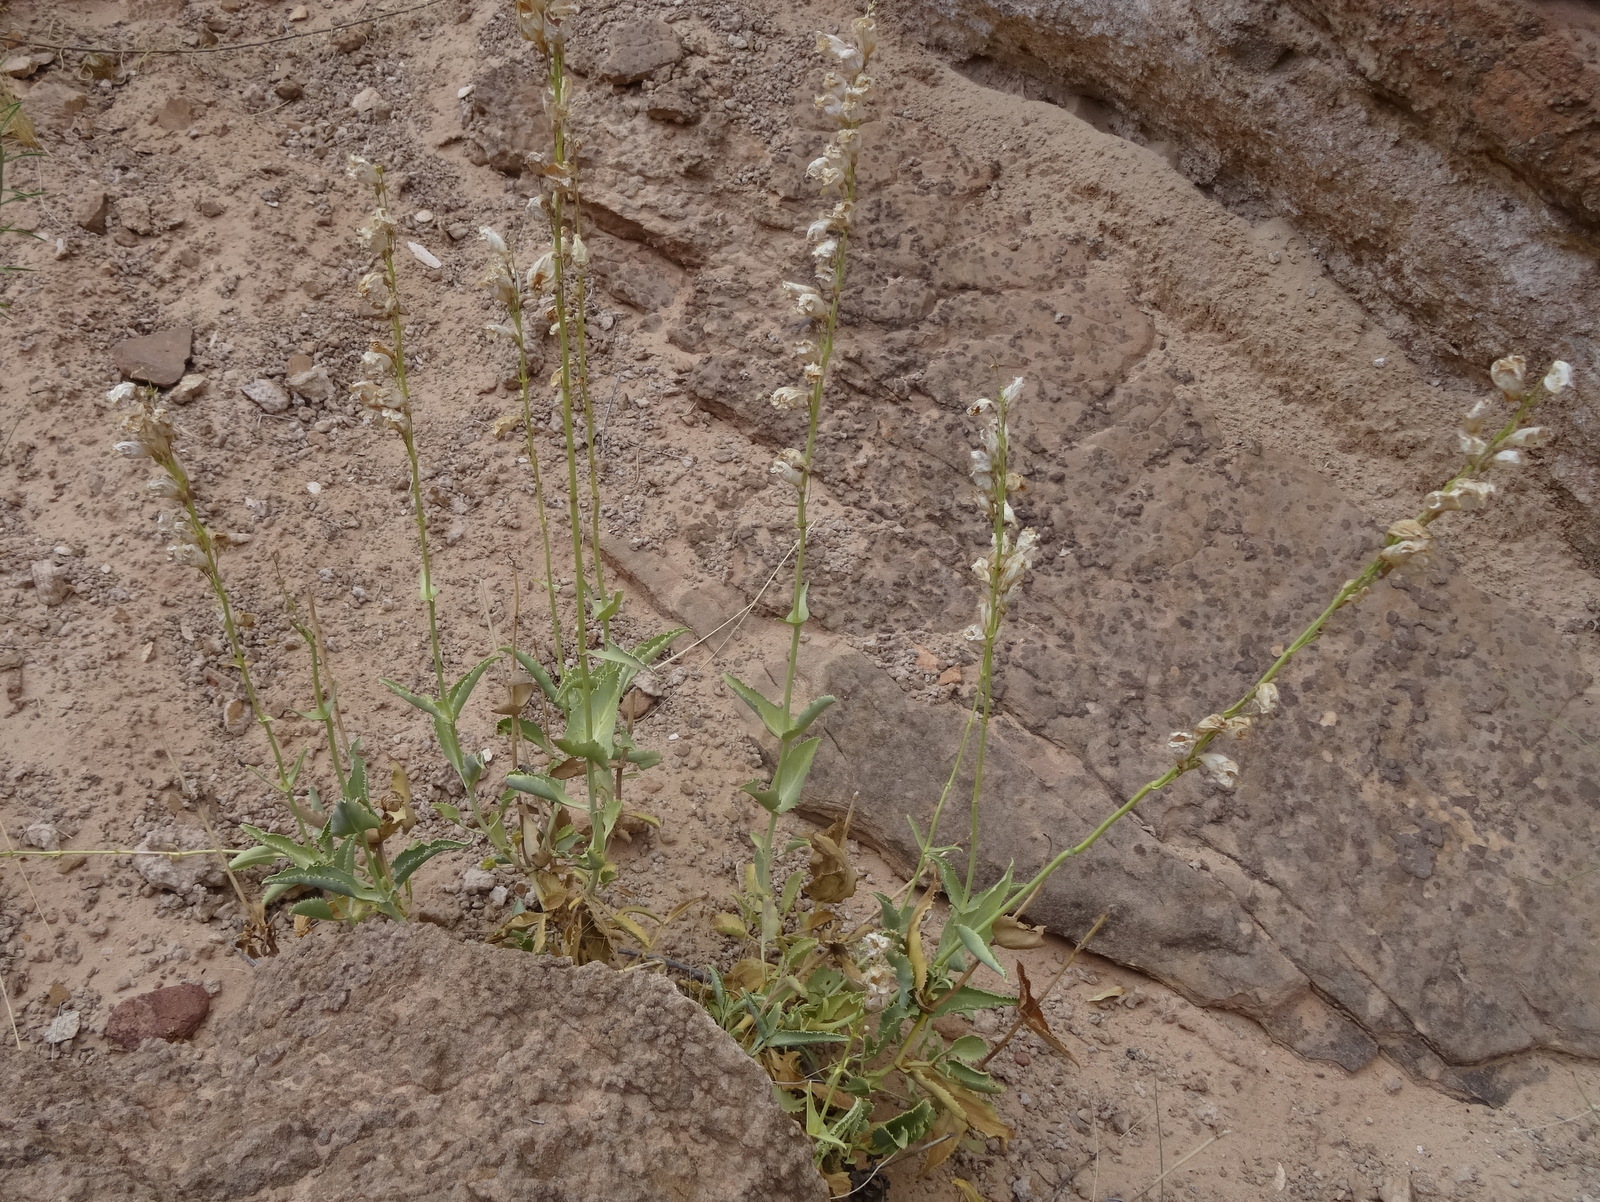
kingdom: Plantae
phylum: Tracheophyta
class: Magnoliopsida
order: Lamiales
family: Plantaginaceae
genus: Penstemon
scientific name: Penstemon palmeri
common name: Palmer penstemon
